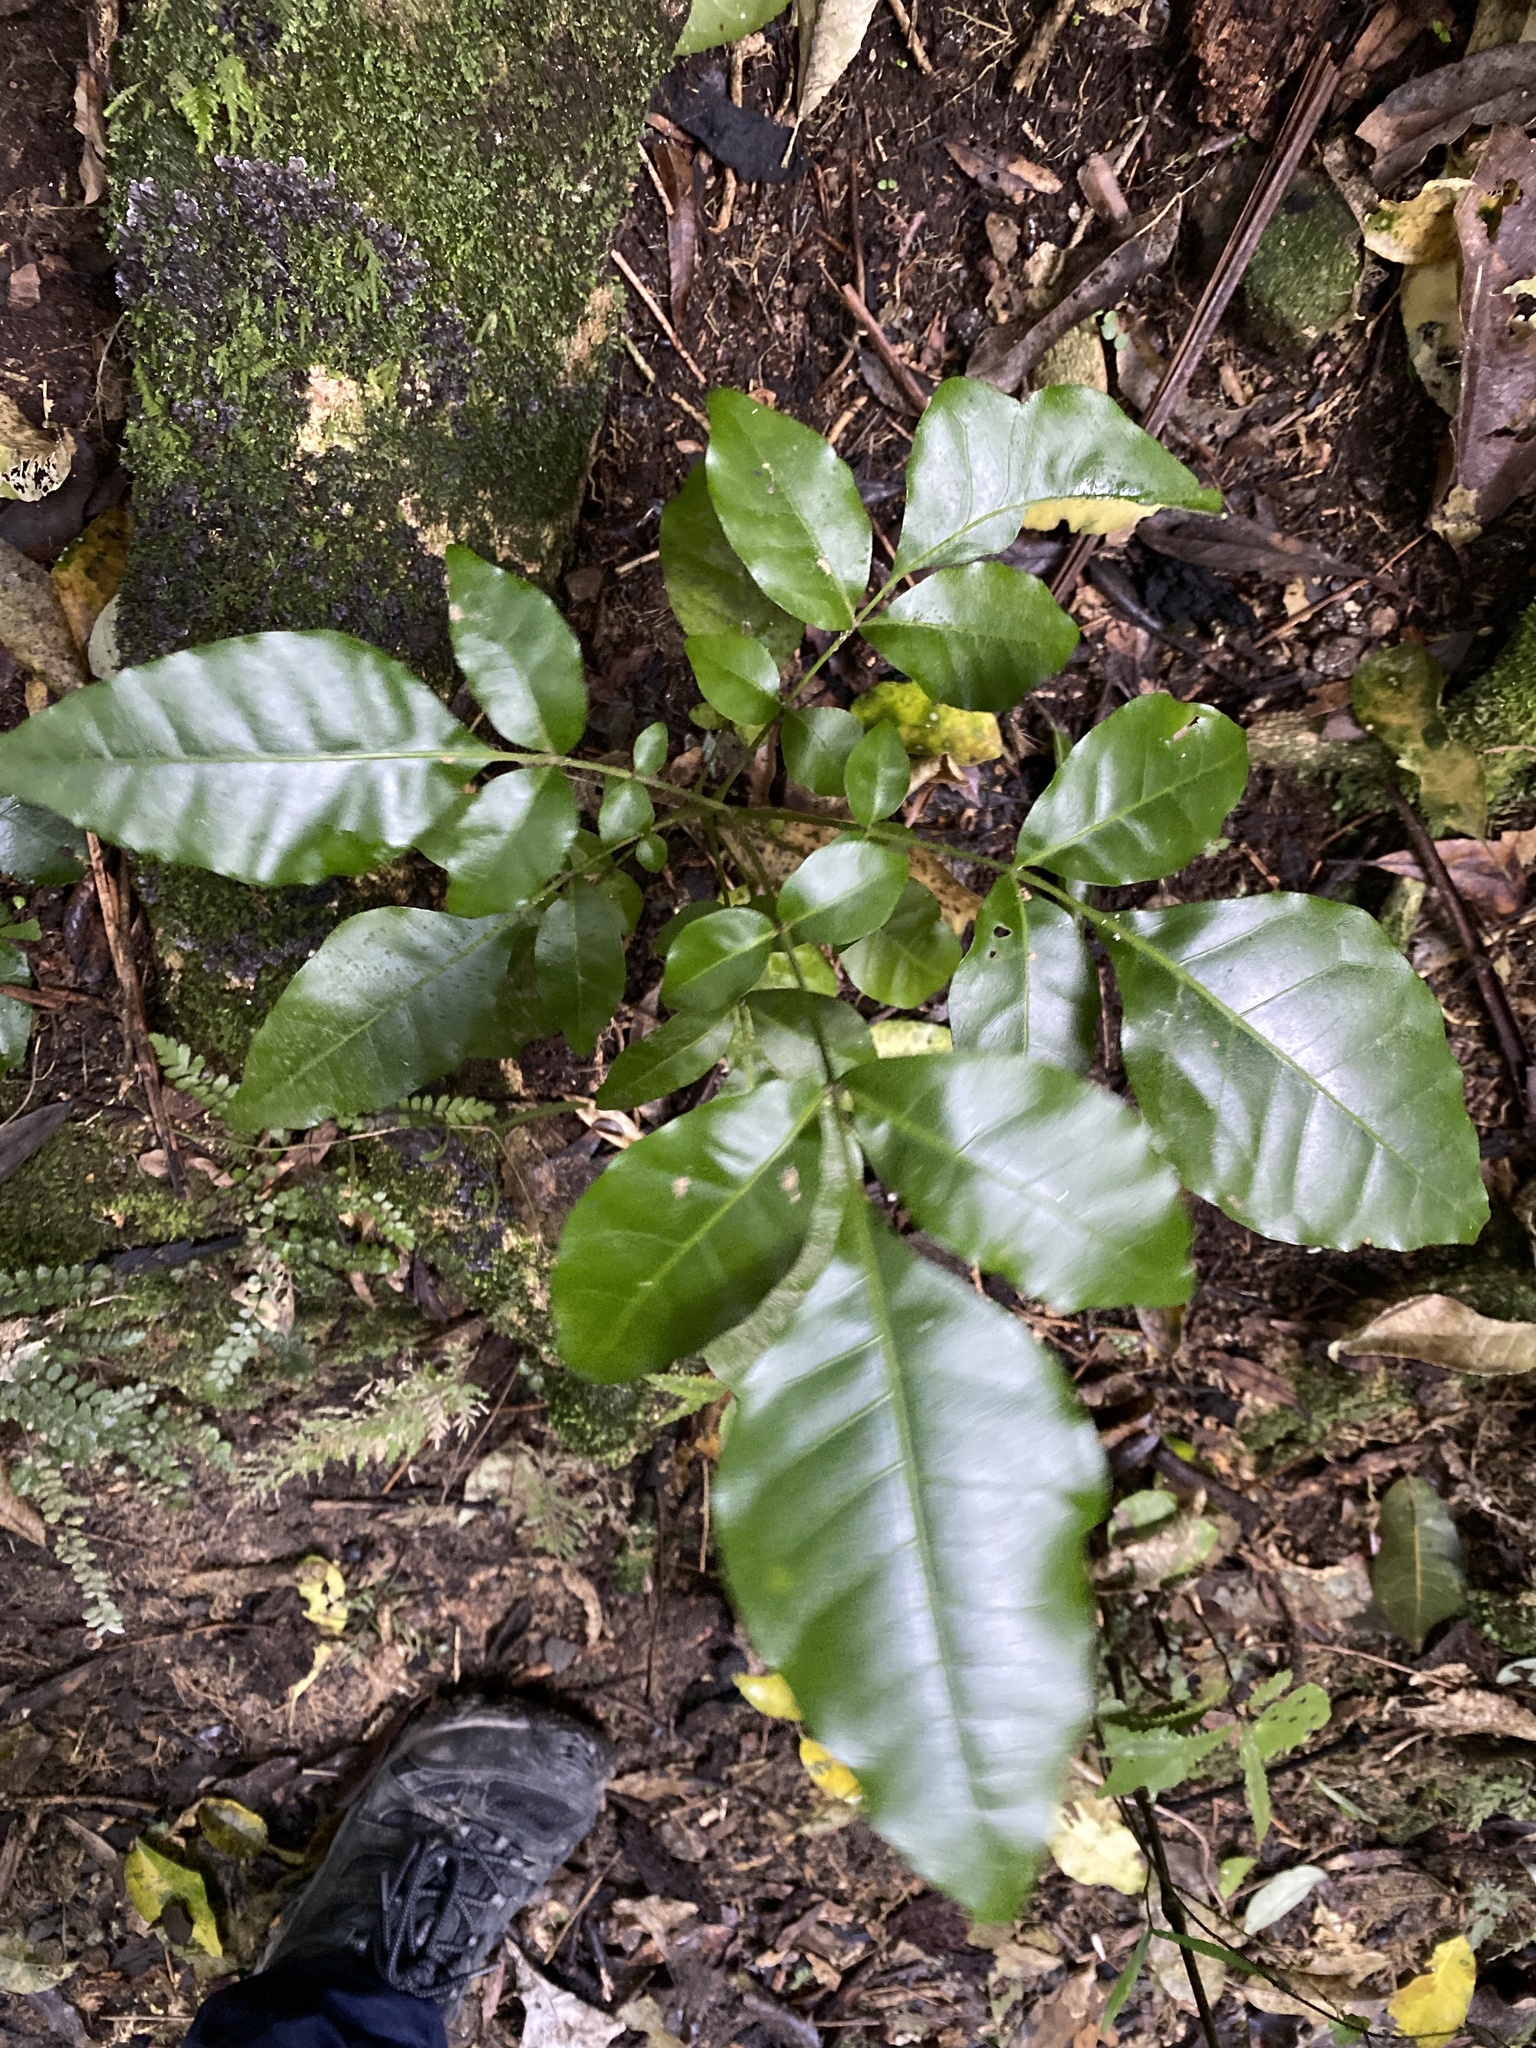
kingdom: Plantae
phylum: Tracheophyta
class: Magnoliopsida
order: Sapindales
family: Meliaceae
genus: Didymocheton
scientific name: Didymocheton spectabilis
